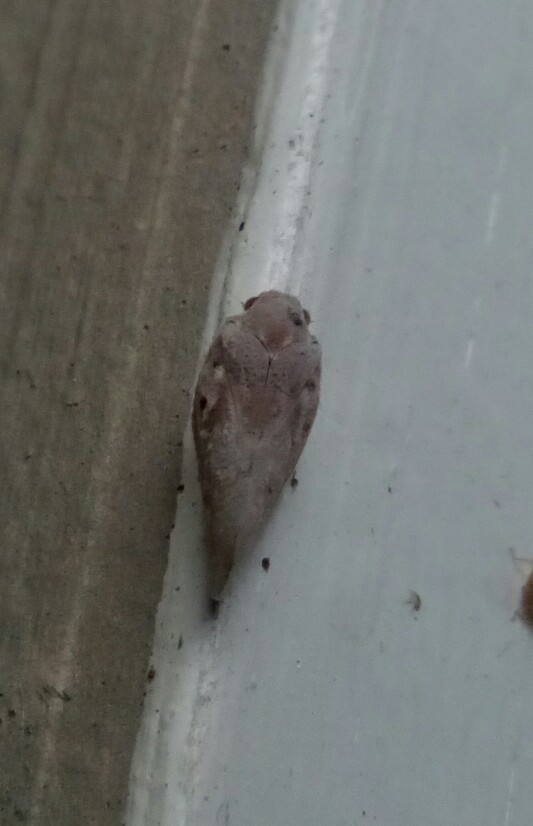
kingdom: Animalia
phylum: Arthropoda
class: Insecta
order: Hemiptera
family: Flatidae
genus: Metcalfa
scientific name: Metcalfa pruinosa
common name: Citrus flatid planthopper
